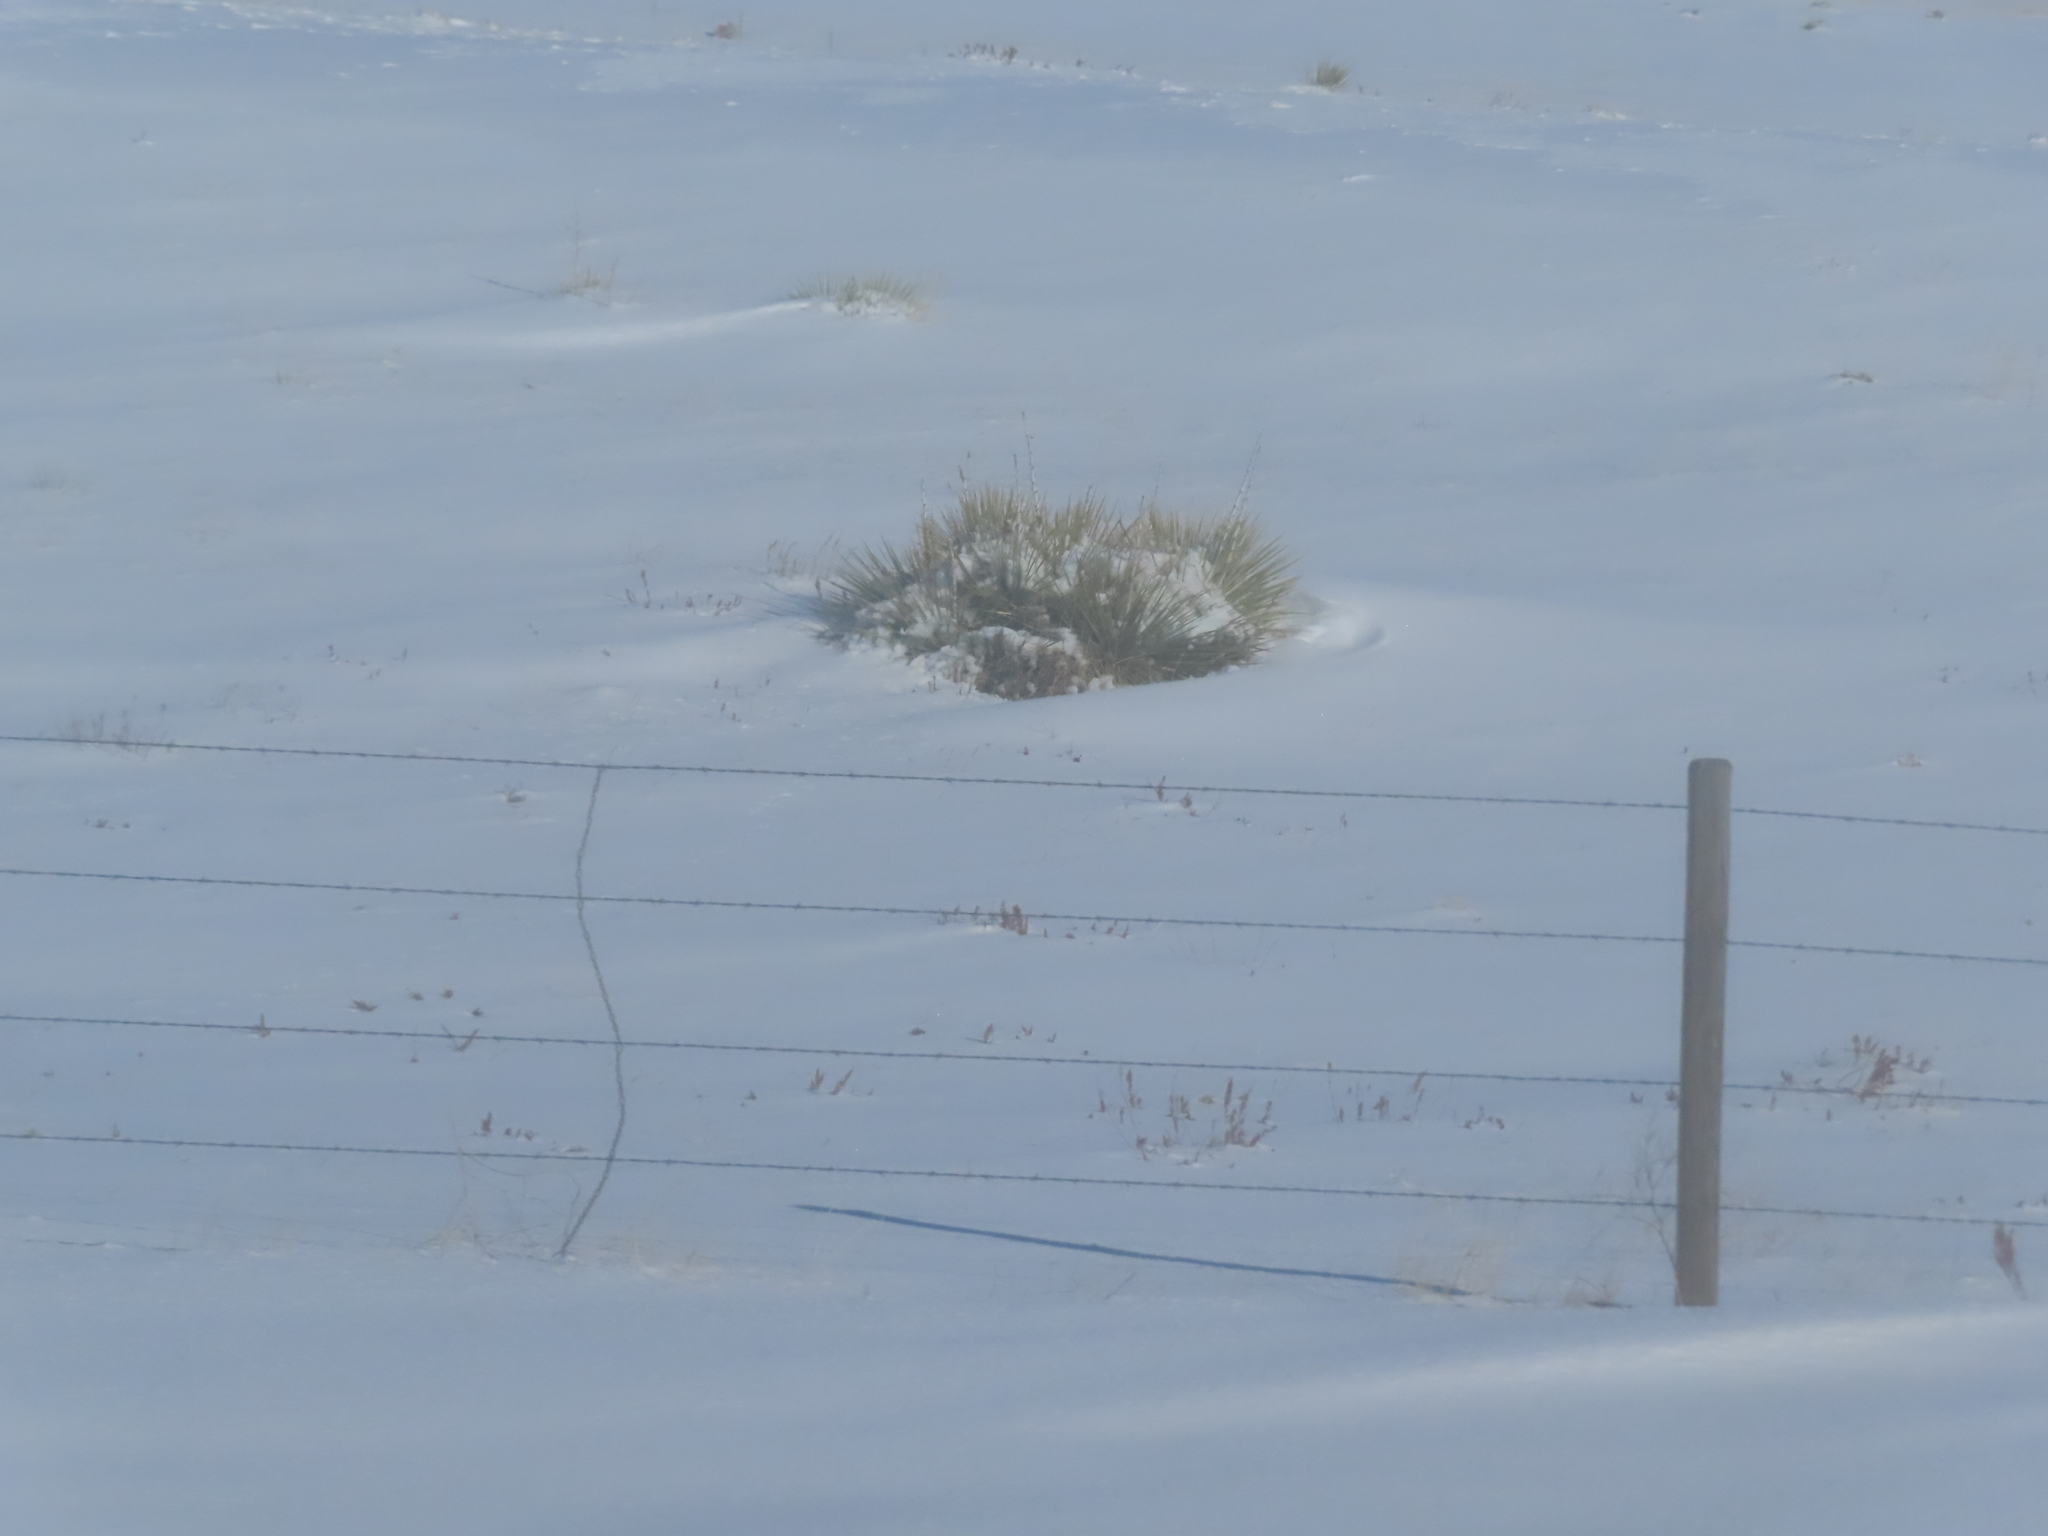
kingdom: Plantae
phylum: Tracheophyta
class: Liliopsida
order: Asparagales
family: Asparagaceae
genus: Yucca
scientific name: Yucca glauca
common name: Great plains yucca
